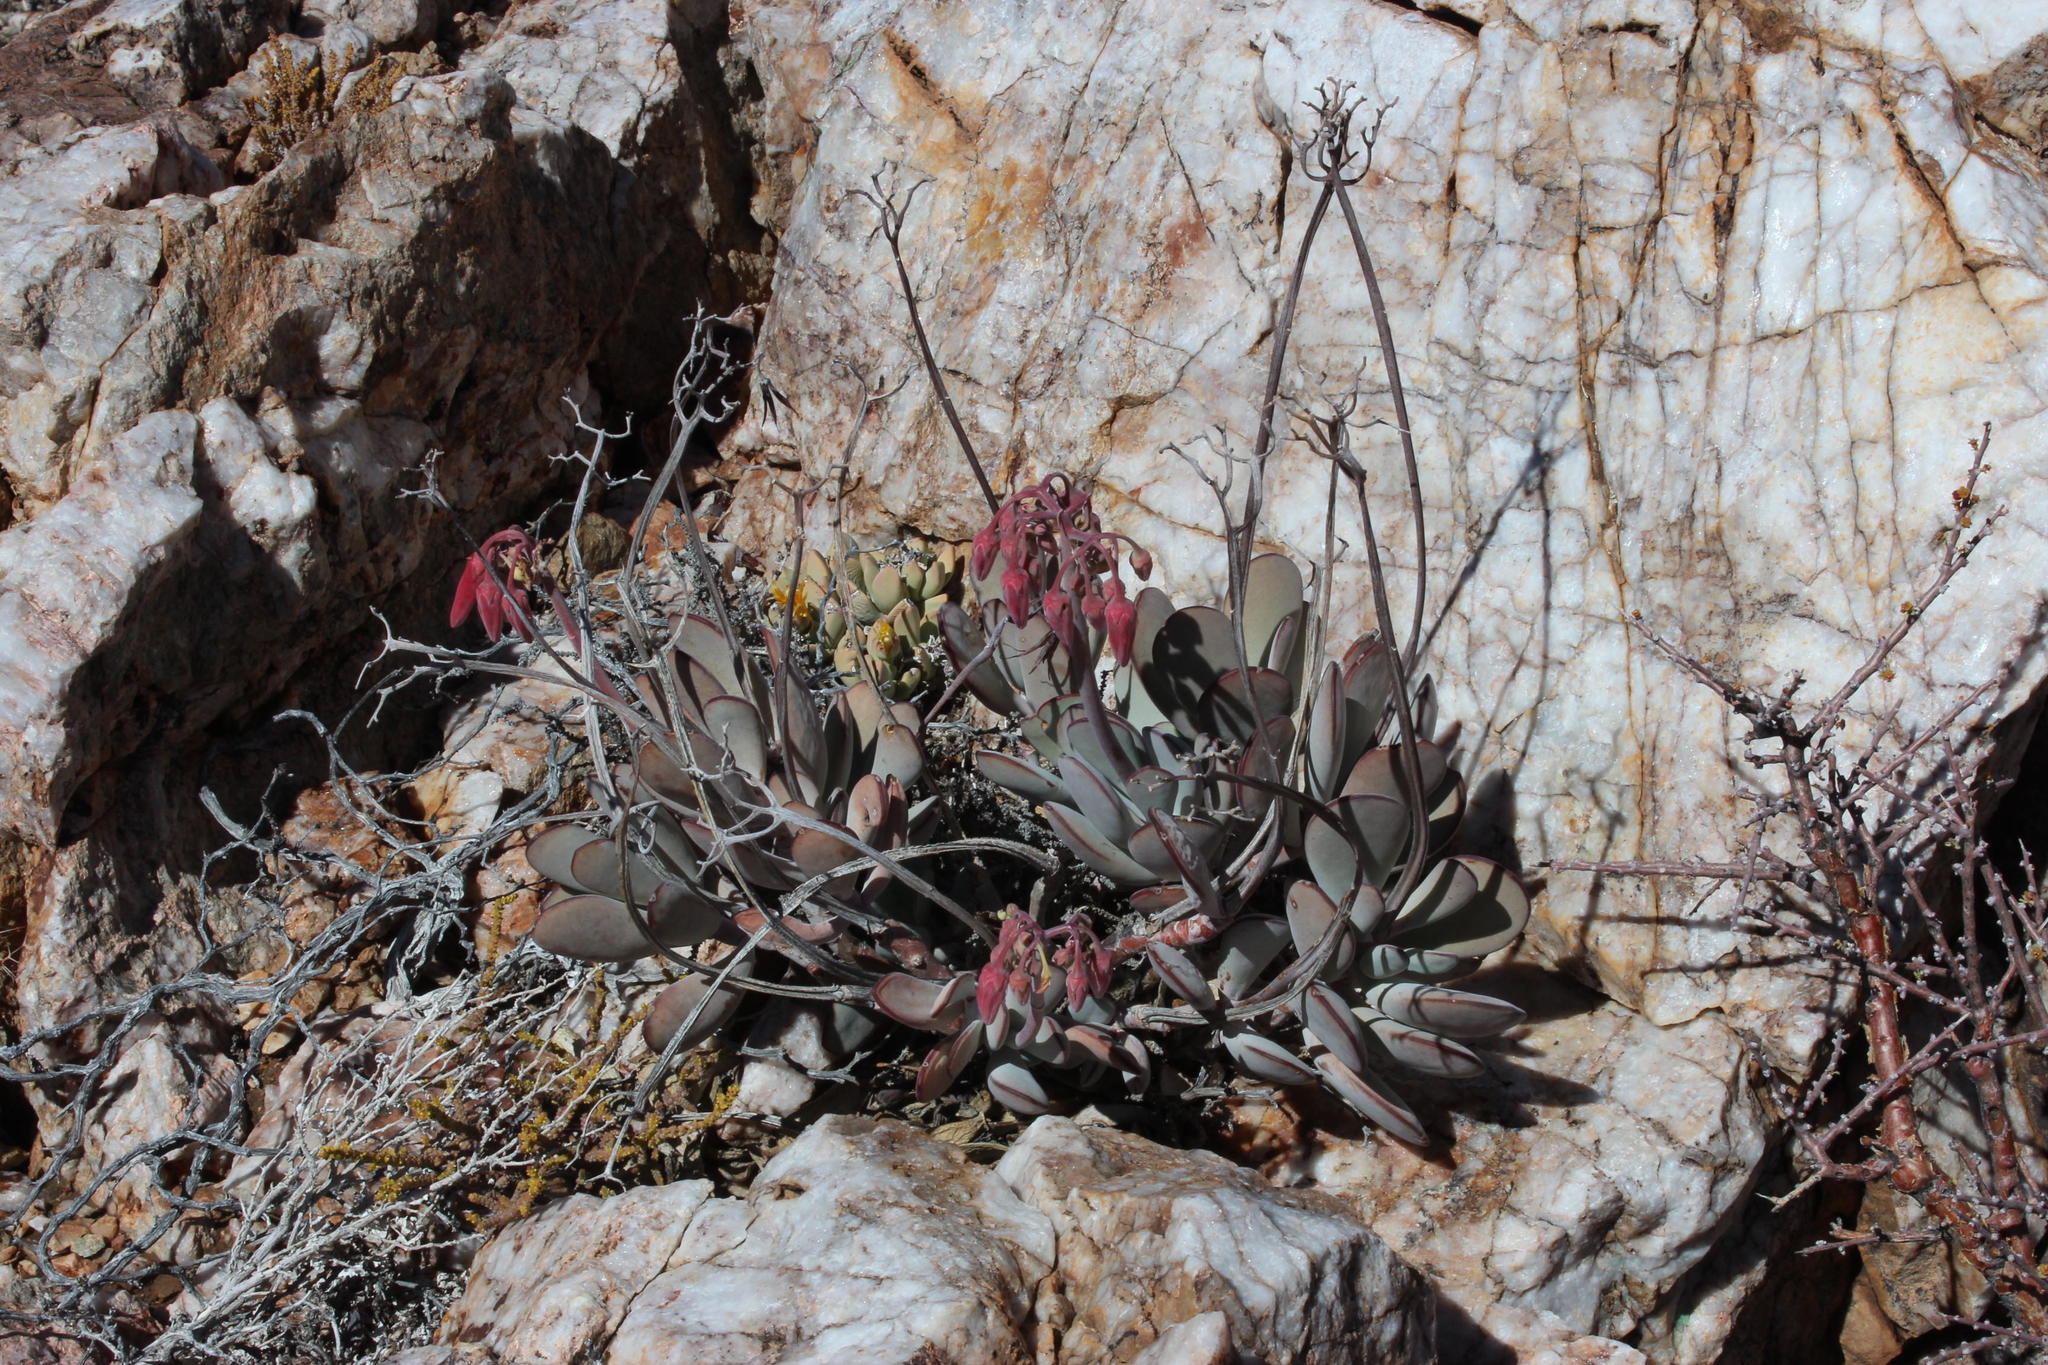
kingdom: Plantae
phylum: Tracheophyta
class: Magnoliopsida
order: Saxifragales
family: Crassulaceae
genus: Cotyledon
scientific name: Cotyledon orbiculata
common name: Pig's ear
